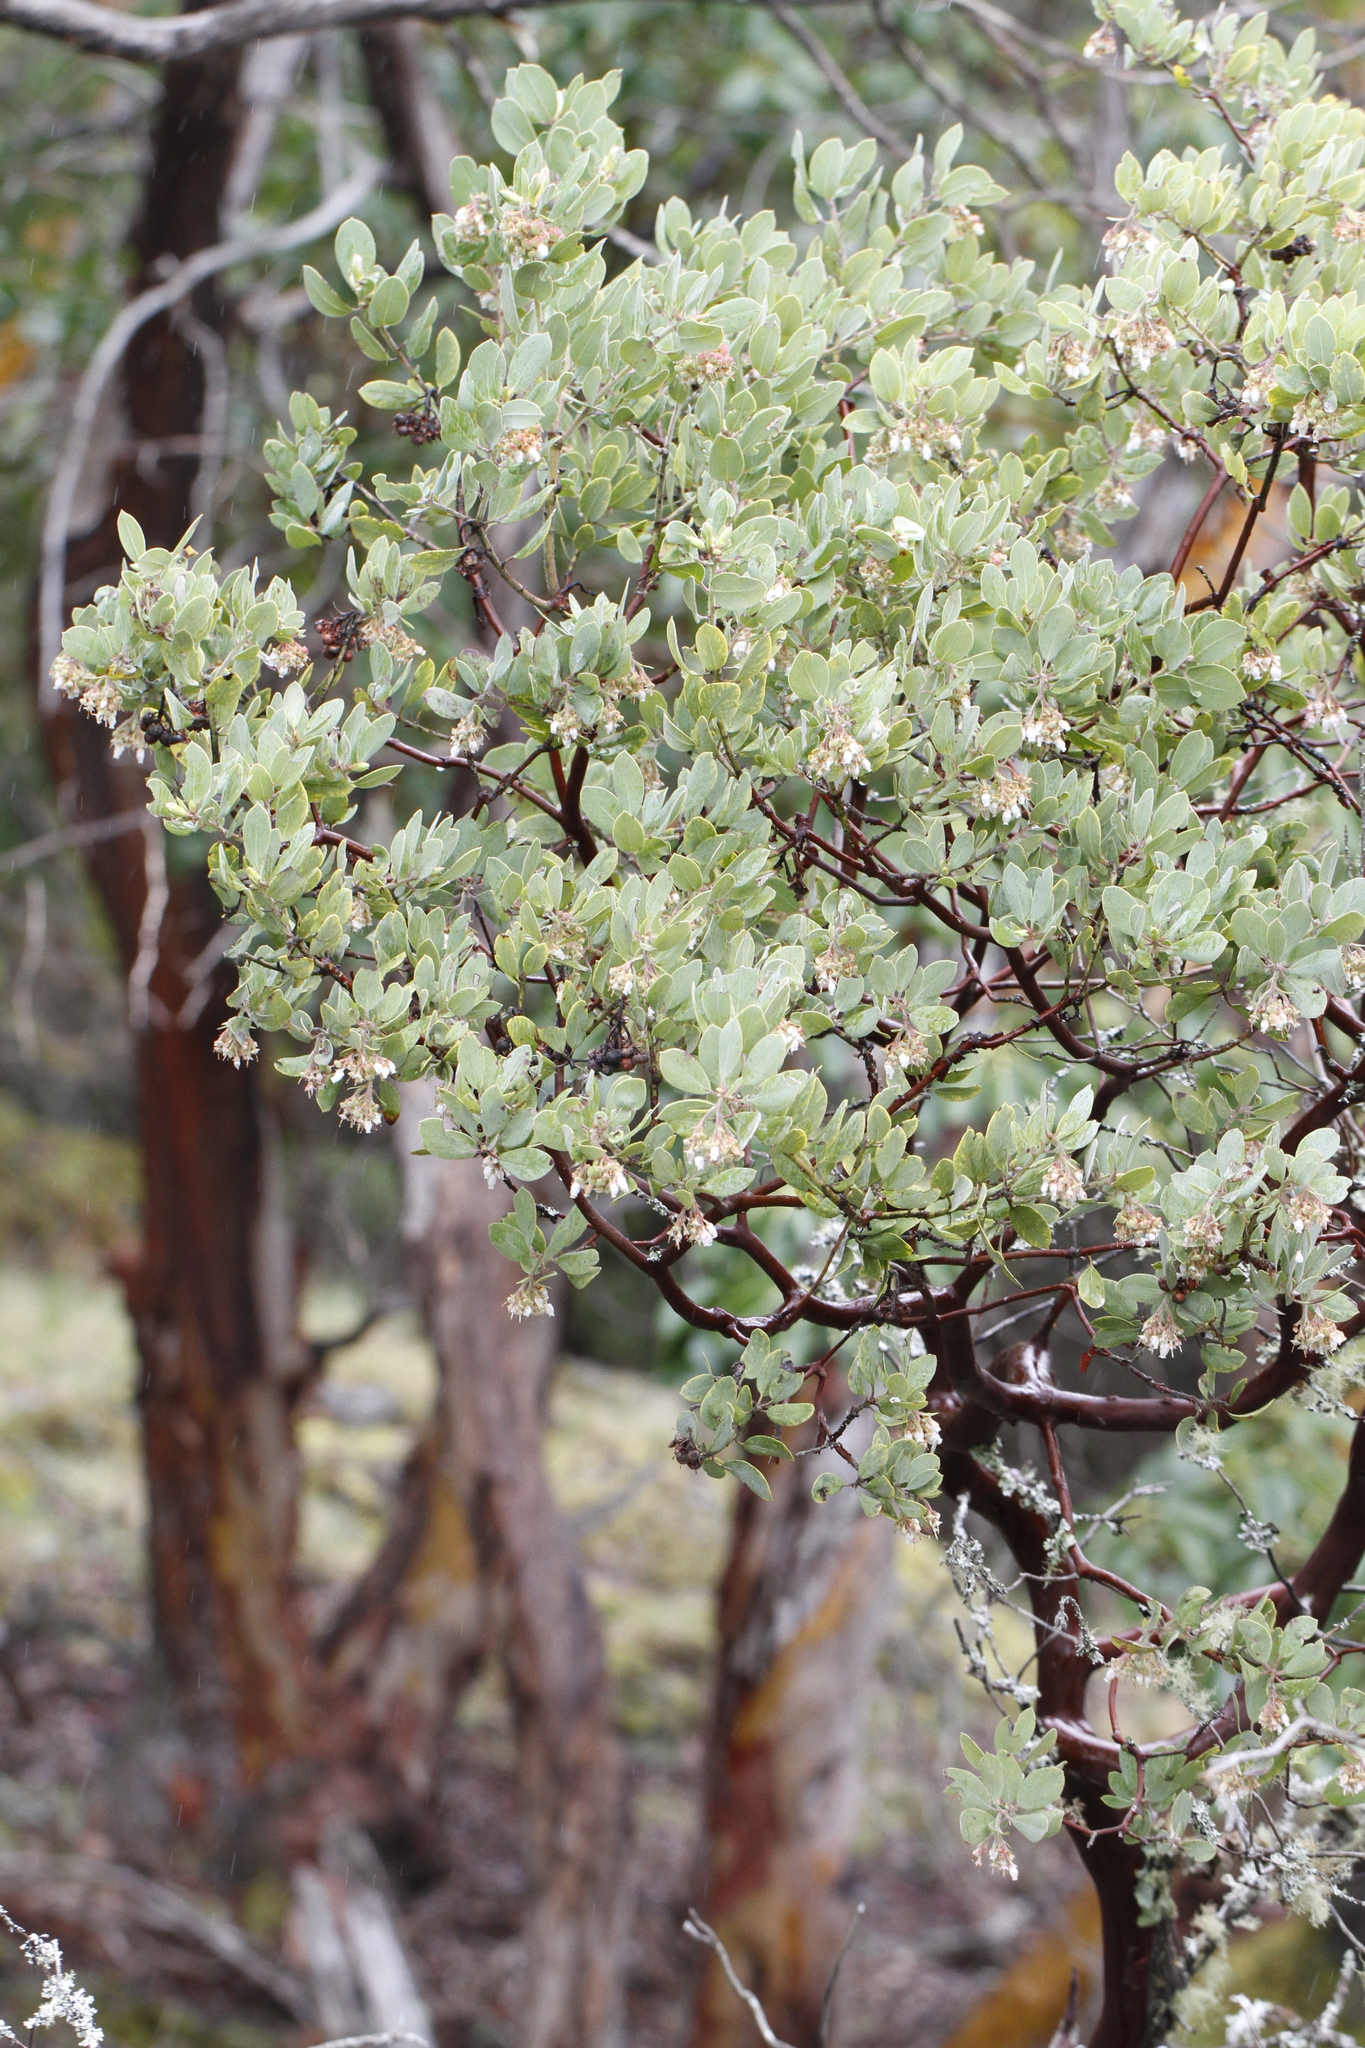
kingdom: Plantae
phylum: Tracheophyta
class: Magnoliopsida
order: Ericales
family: Ericaceae
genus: Arctostaphylos
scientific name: Arctostaphylos columbiana
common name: Bristly bearberry
